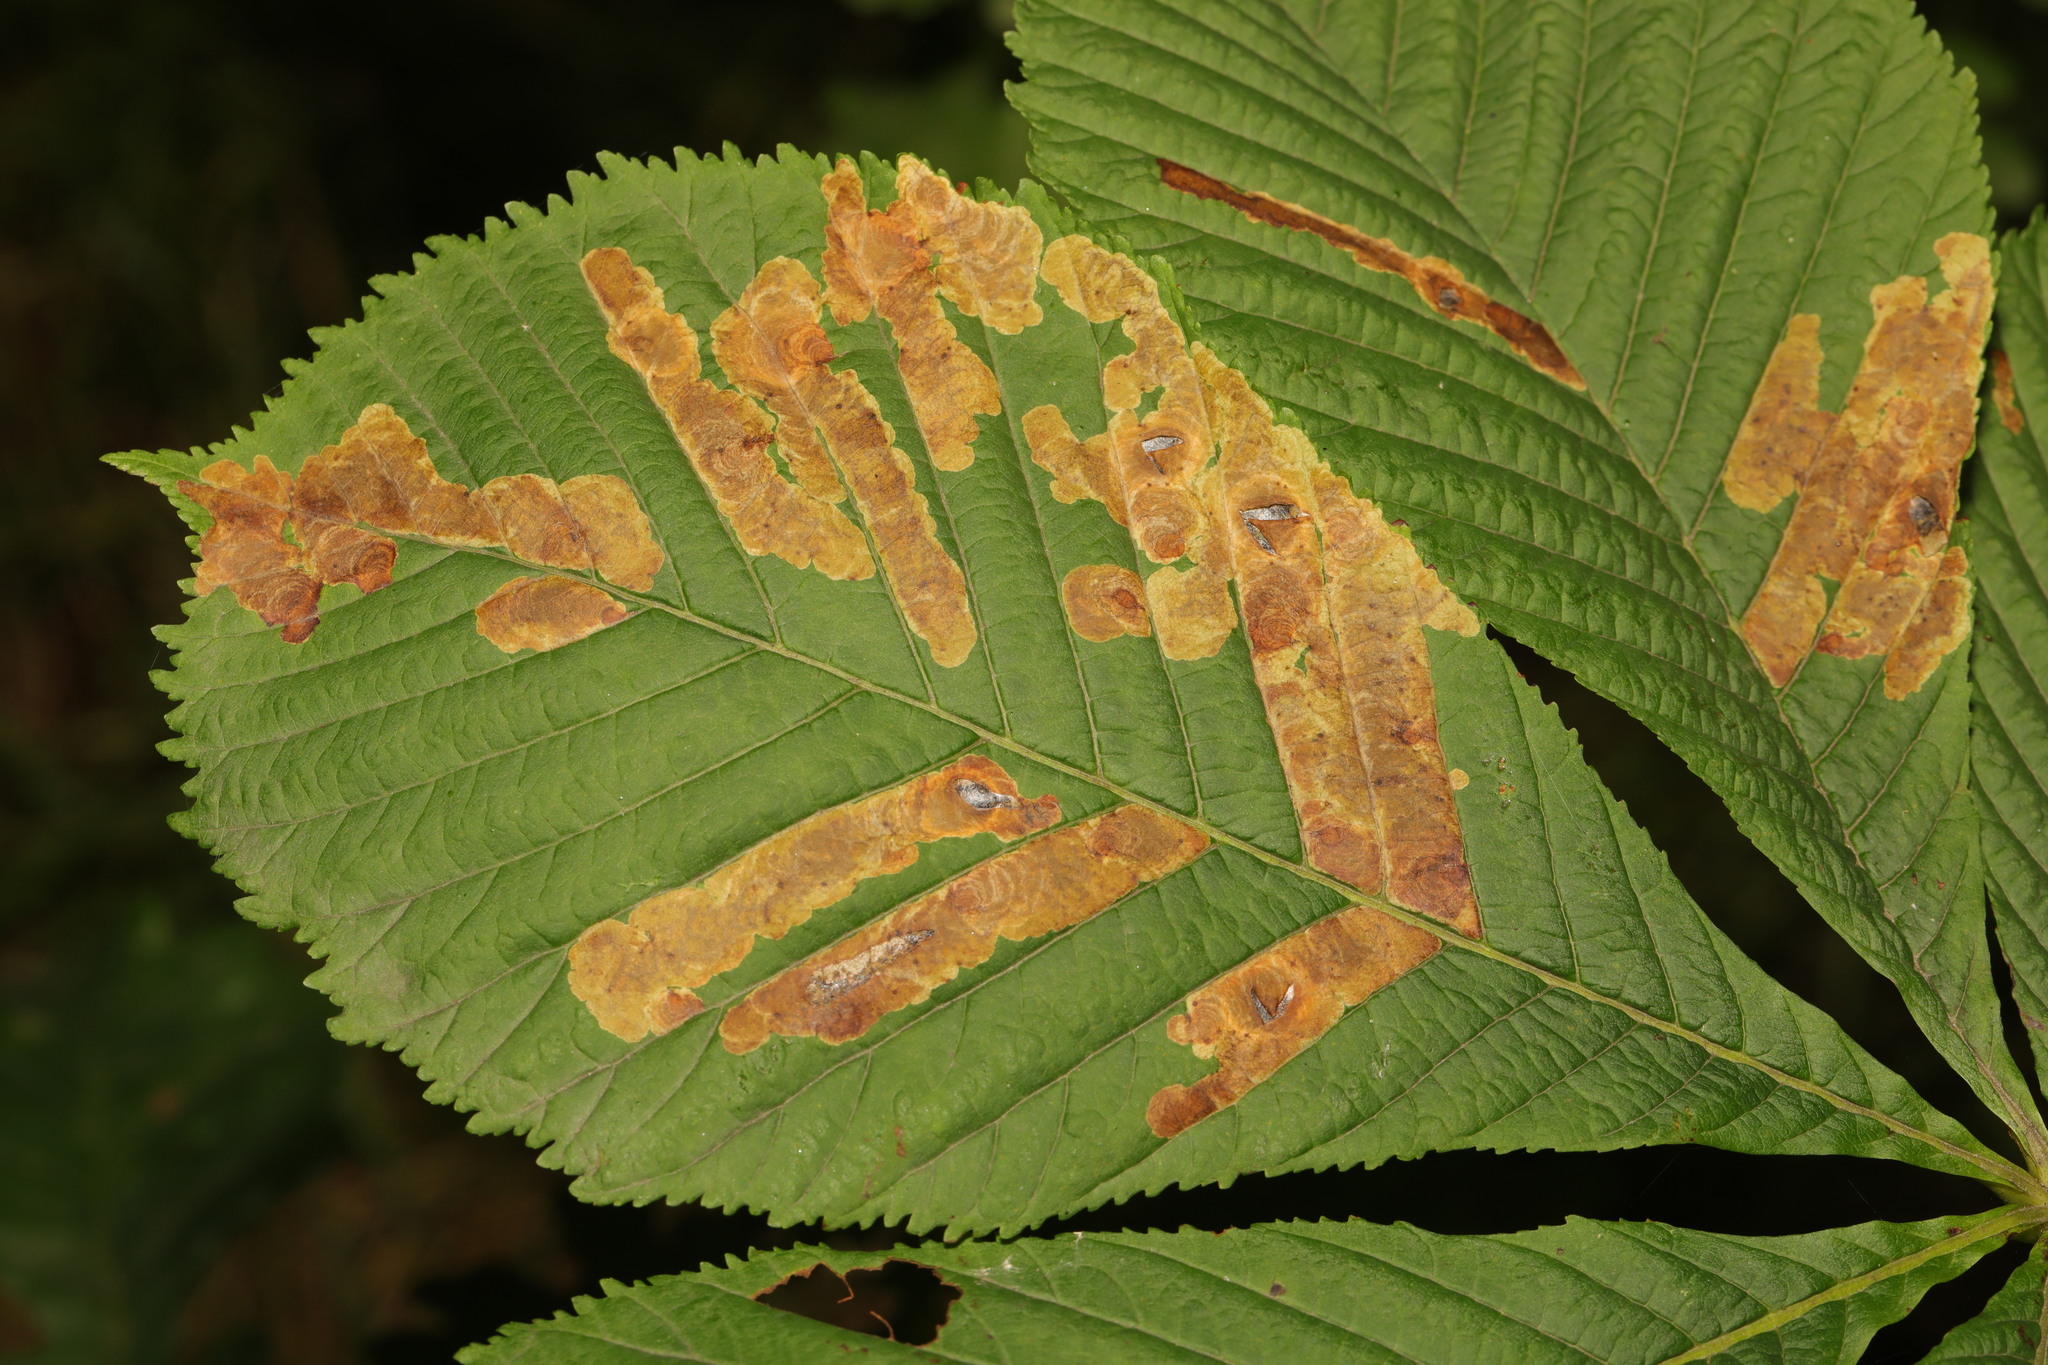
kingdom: Animalia
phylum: Arthropoda
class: Insecta
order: Lepidoptera
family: Gracillariidae
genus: Cameraria
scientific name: Cameraria ohridella
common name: Horse-chestnut leaf-miner
